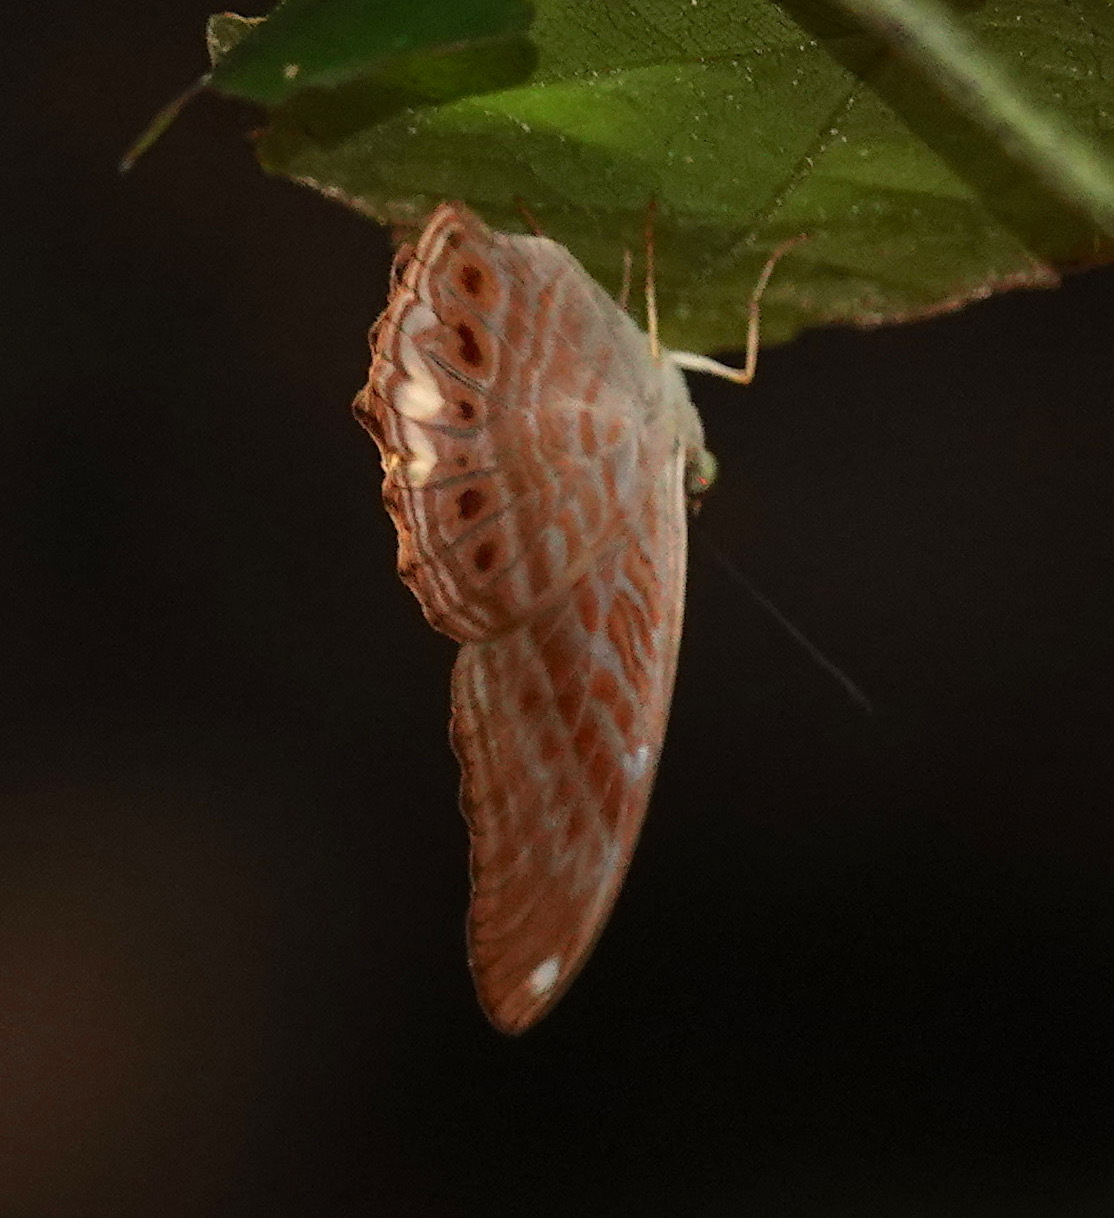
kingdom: Animalia
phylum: Arthropoda
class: Insecta
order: Lepidoptera
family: Nymphalidae
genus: Terinos
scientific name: Terinos terpander
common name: Royal assyrian
